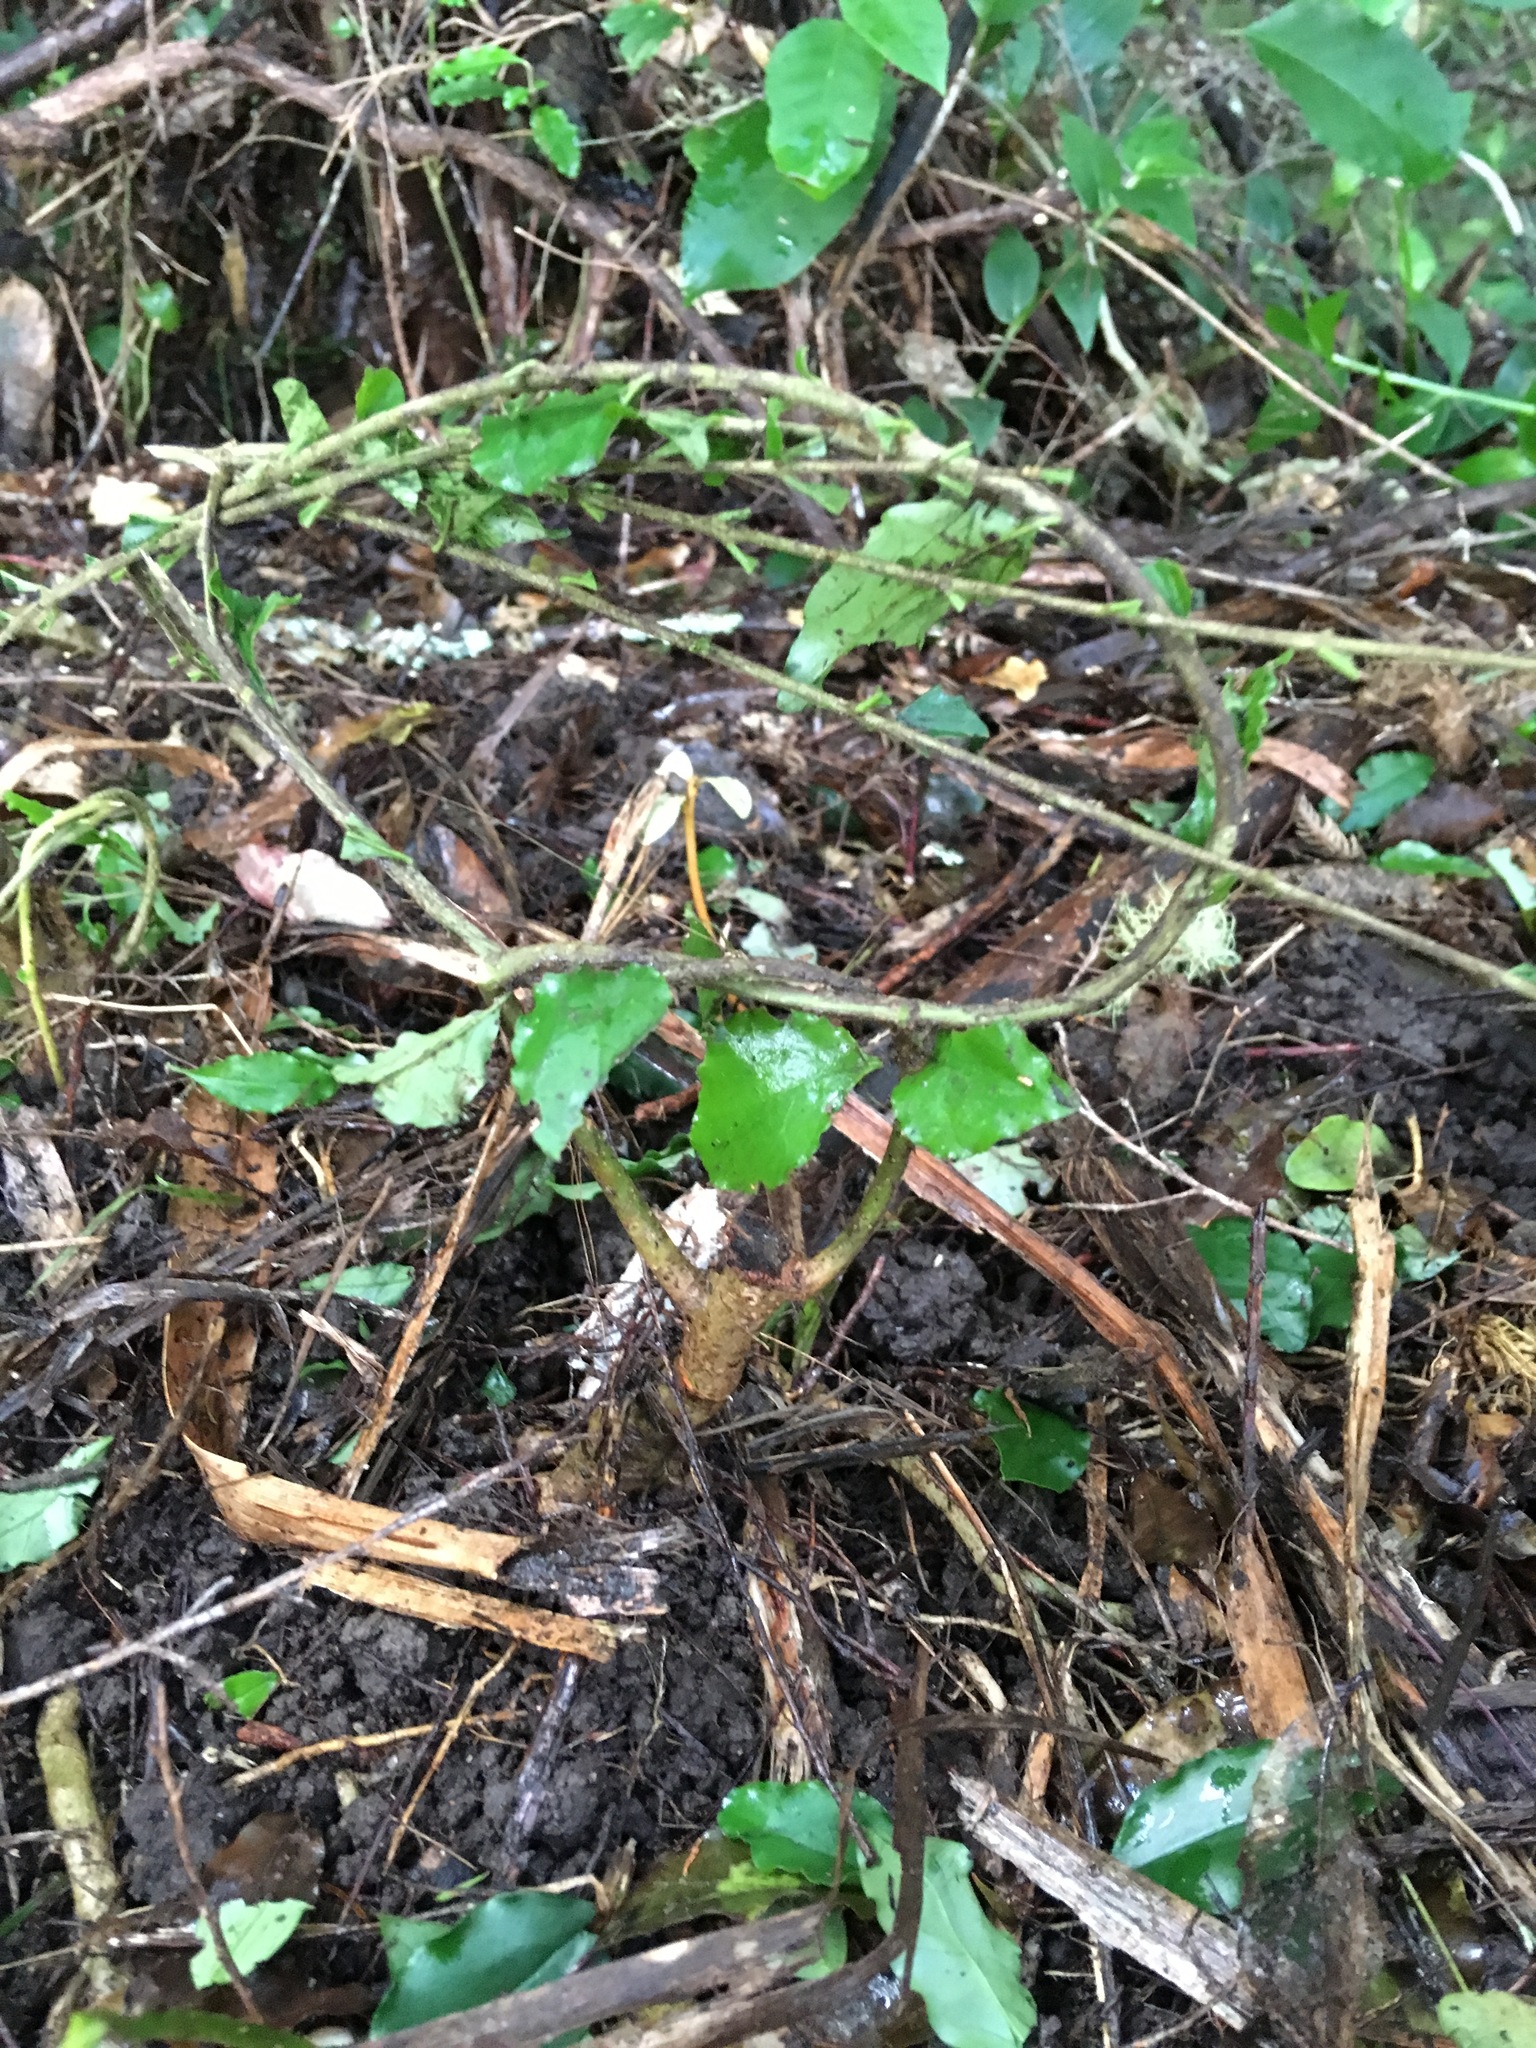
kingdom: Plantae
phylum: Tracheophyta
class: Magnoliopsida
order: Lamiales
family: Oleaceae
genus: Ligustrum
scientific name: Ligustrum sinense
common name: Chinese privet
